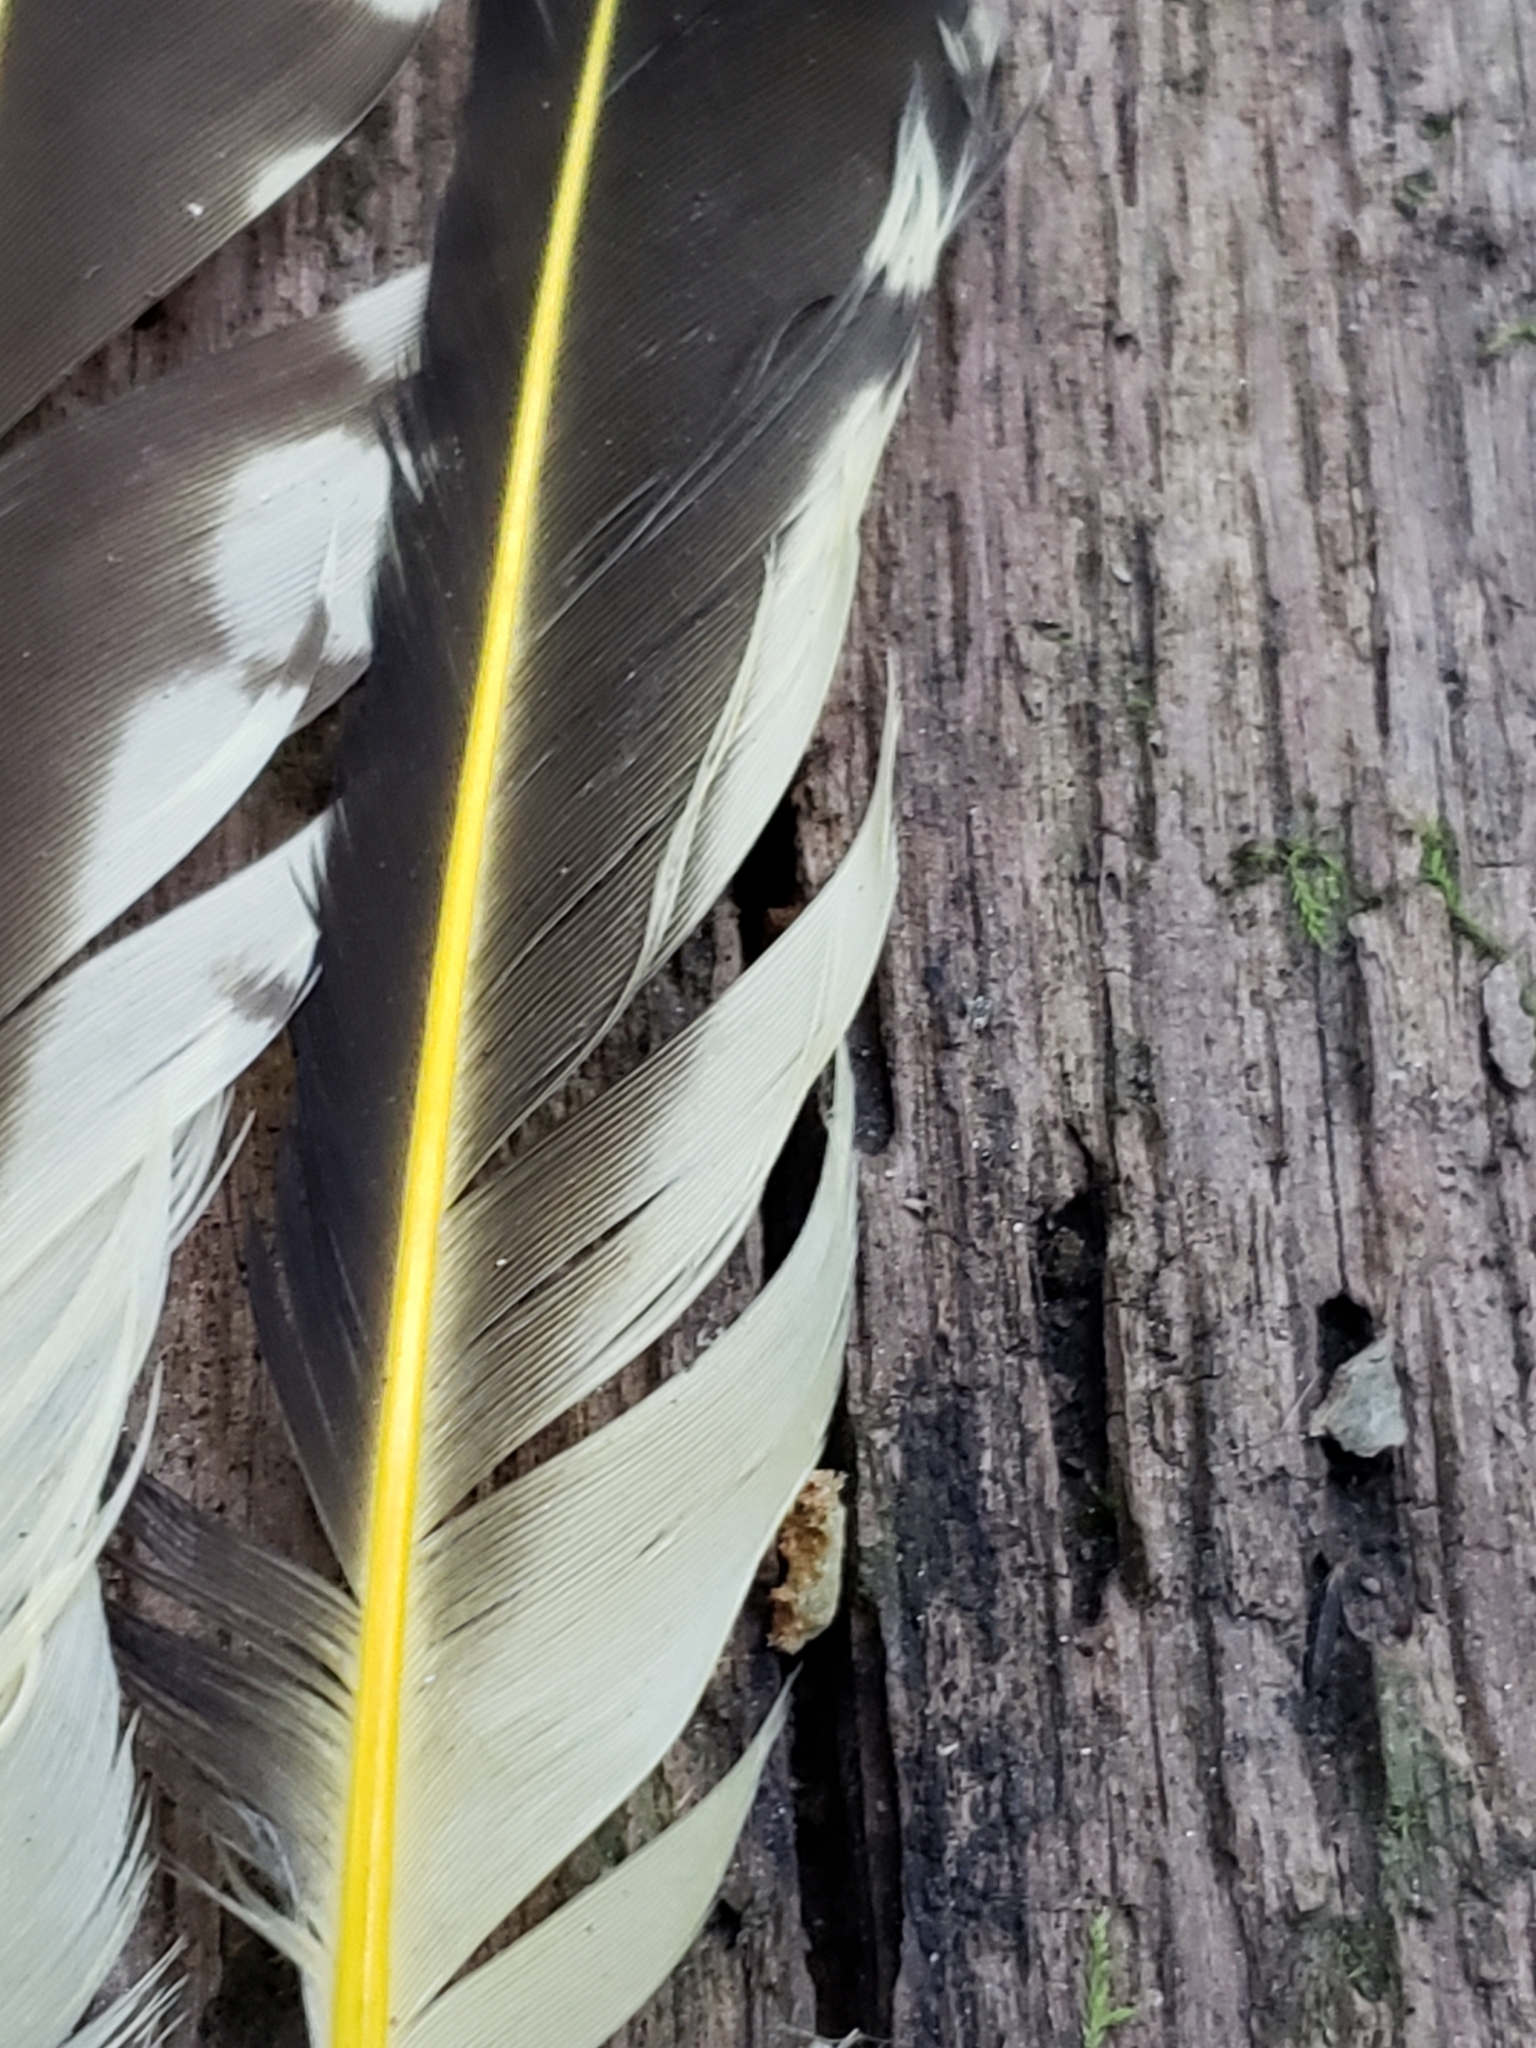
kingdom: Animalia
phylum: Chordata
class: Aves
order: Piciformes
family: Picidae
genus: Colaptes
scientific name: Colaptes auratus
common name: Northern flicker
